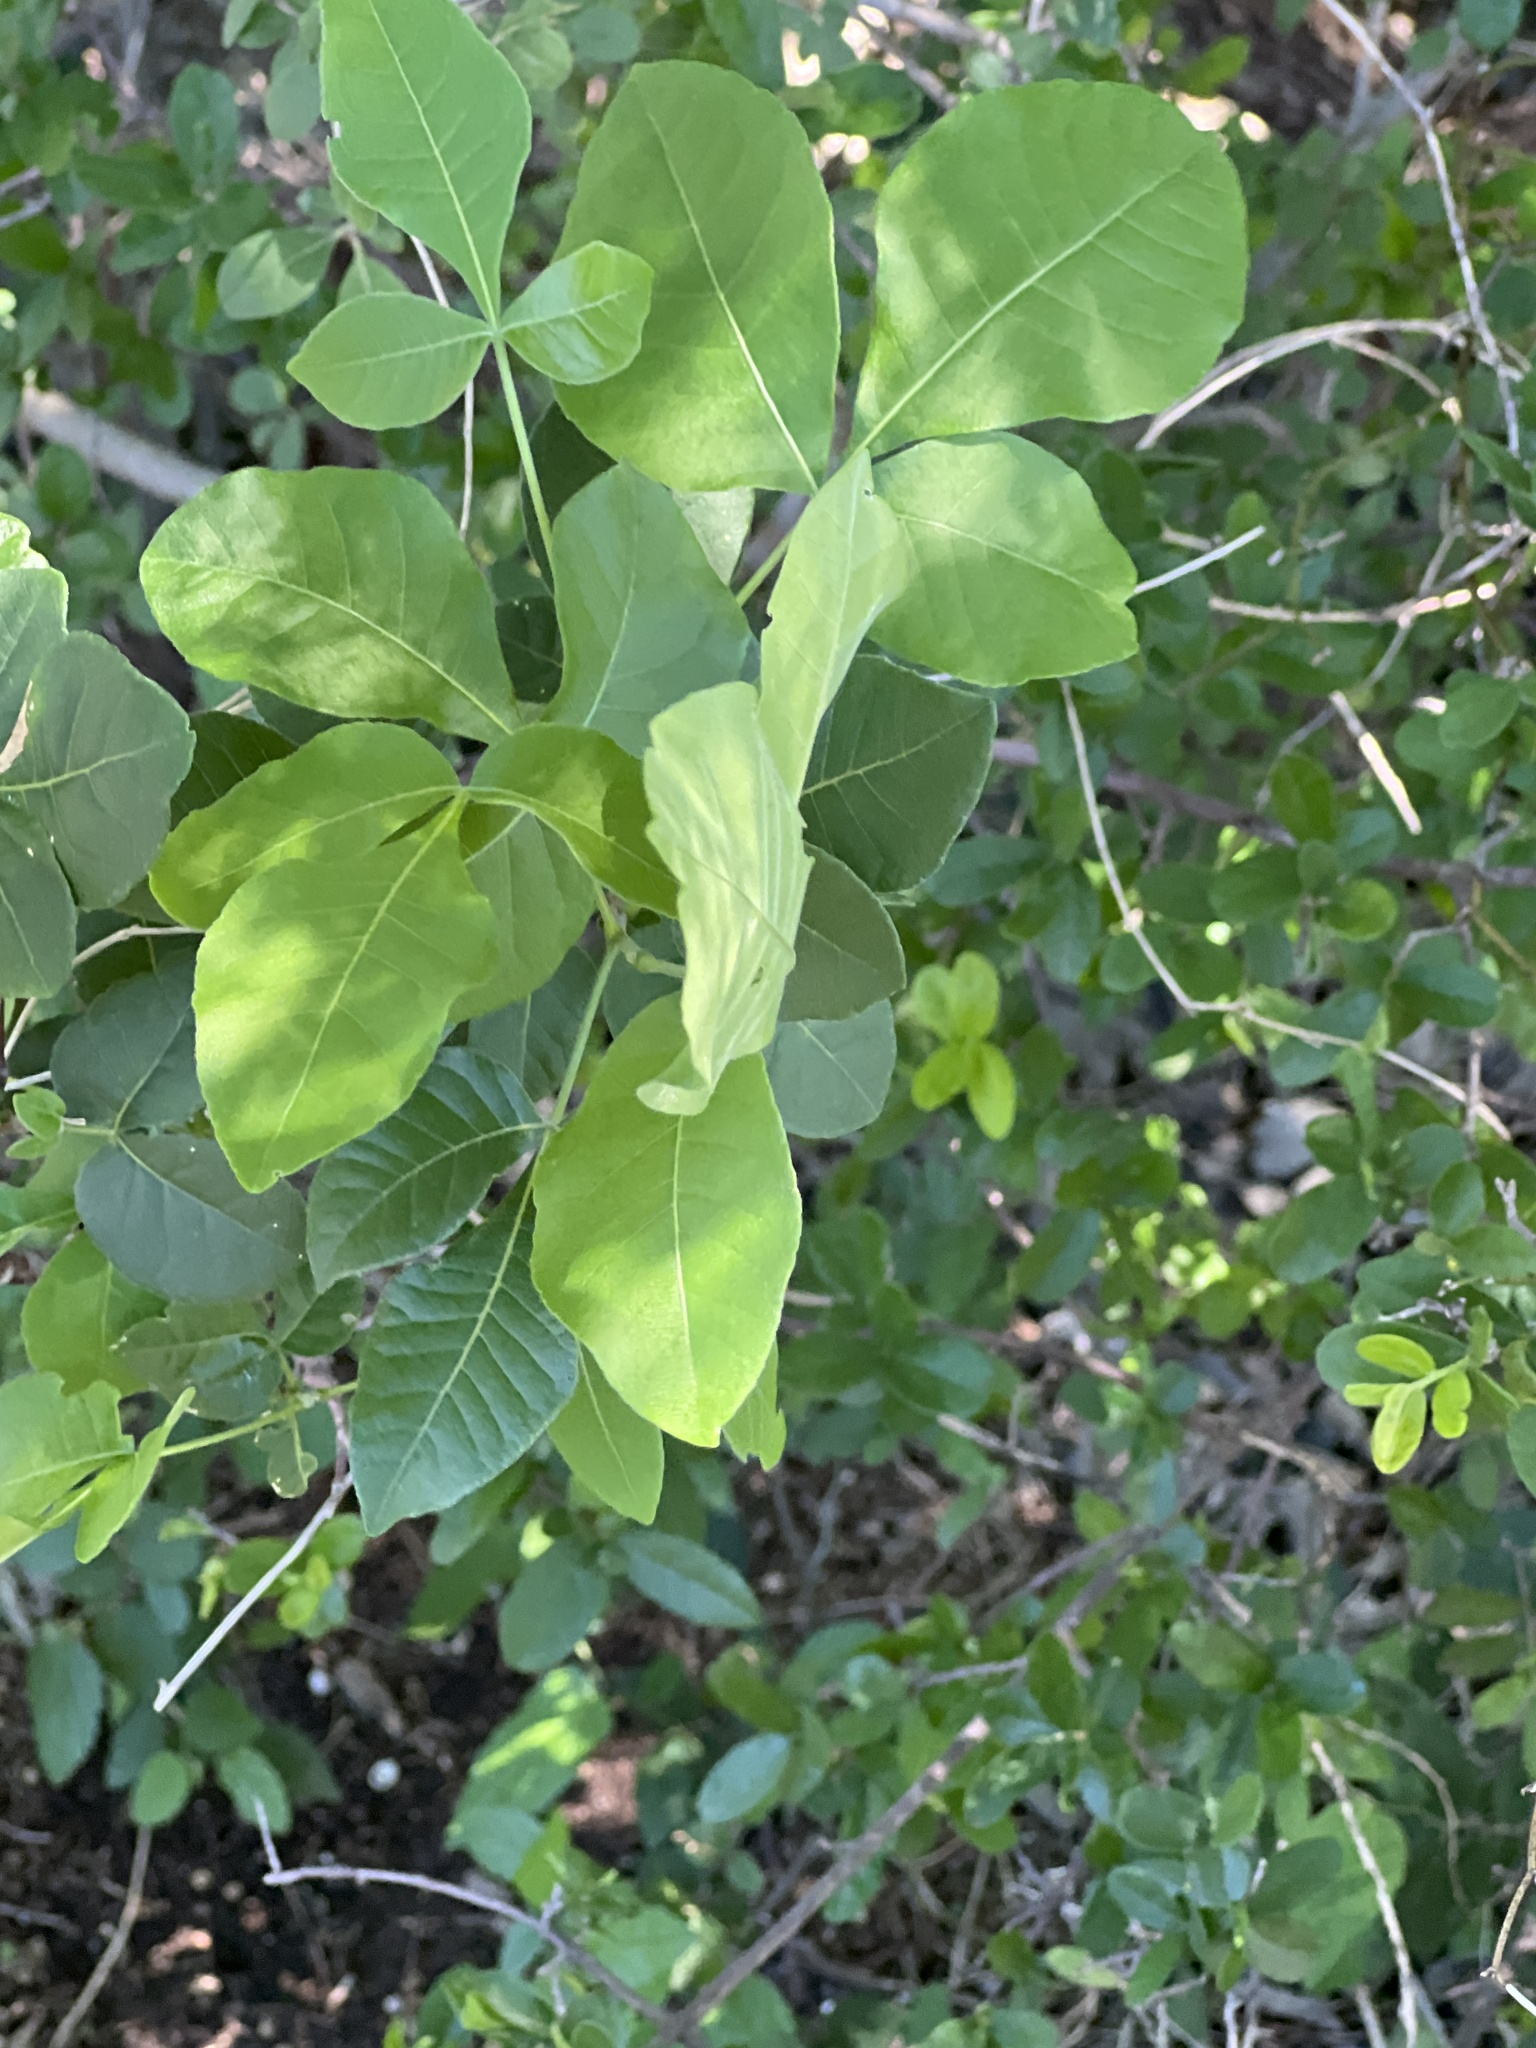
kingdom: Plantae
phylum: Tracheophyta
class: Magnoliopsida
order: Sapindales
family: Rutaceae
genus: Ptelea
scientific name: Ptelea trifoliata
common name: Common hop-tree
